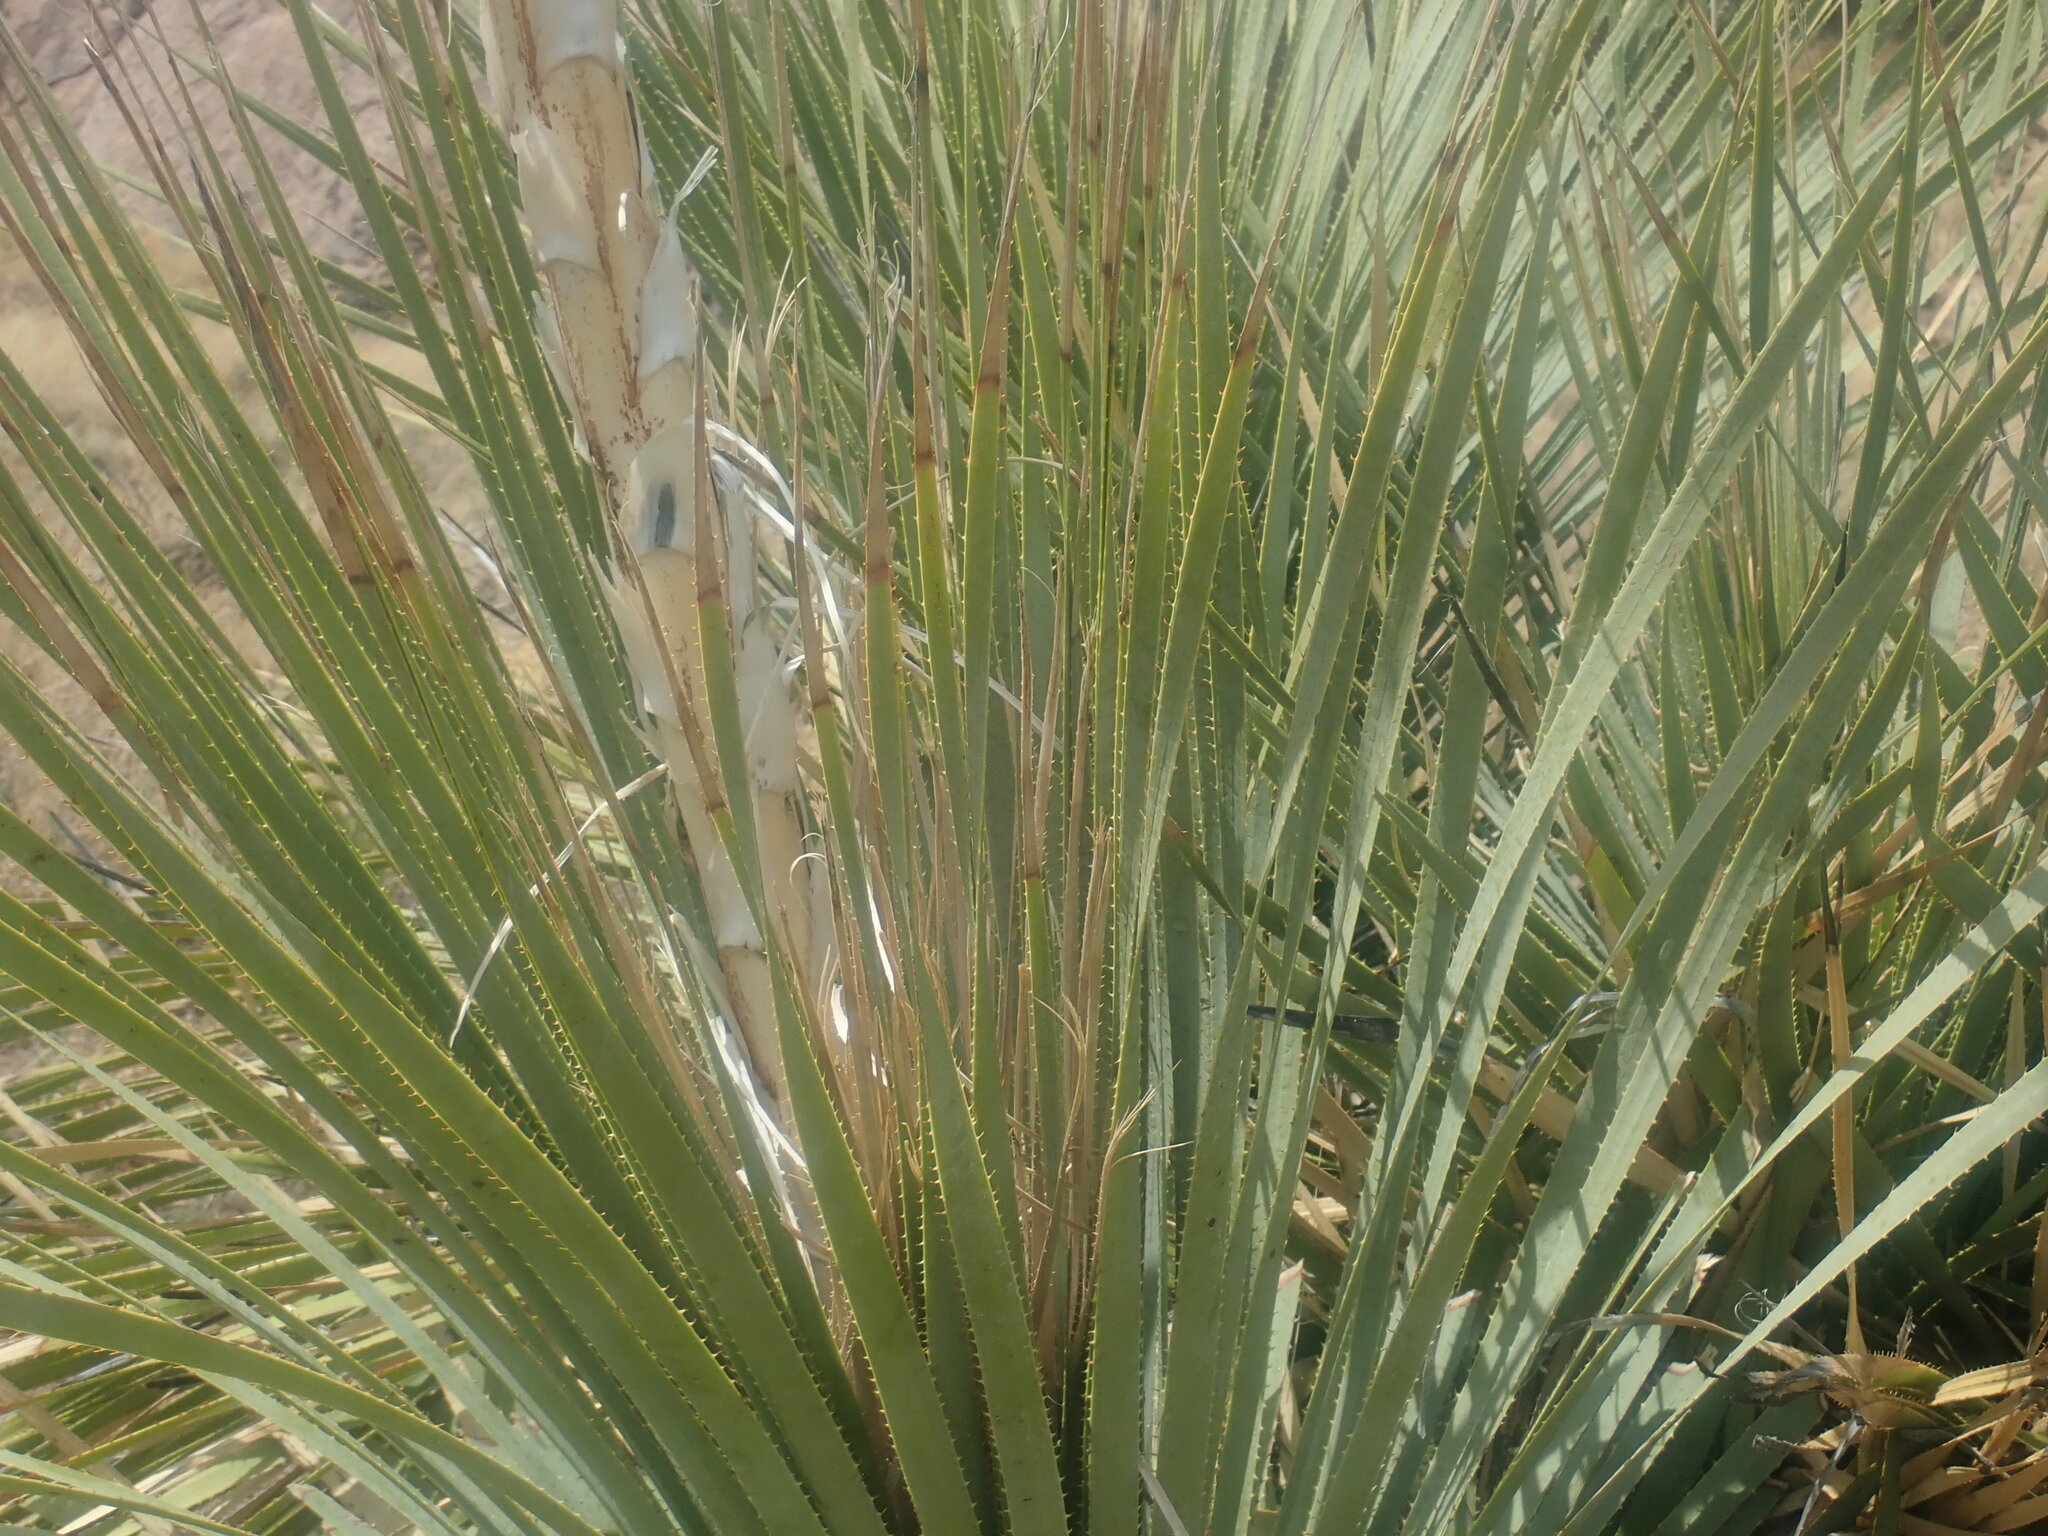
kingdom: Plantae
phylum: Tracheophyta
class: Liliopsida
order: Asparagales
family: Asparagaceae
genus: Dasylirion
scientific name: Dasylirion wheeleri
